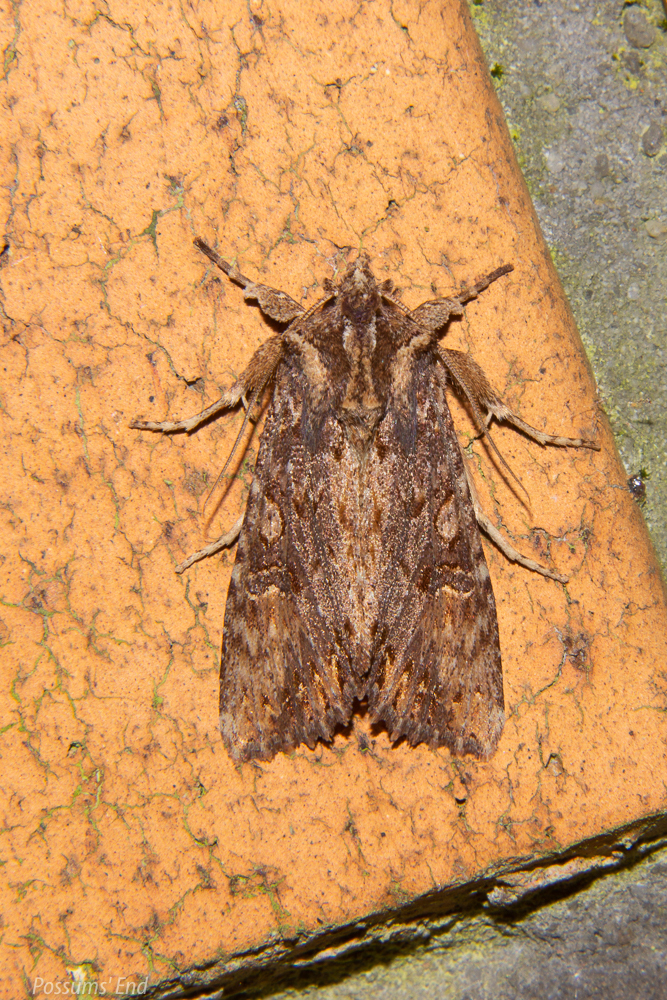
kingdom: Animalia
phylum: Arthropoda
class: Insecta
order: Lepidoptera
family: Noctuidae
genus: Meterana
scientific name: Meterana alcyone
